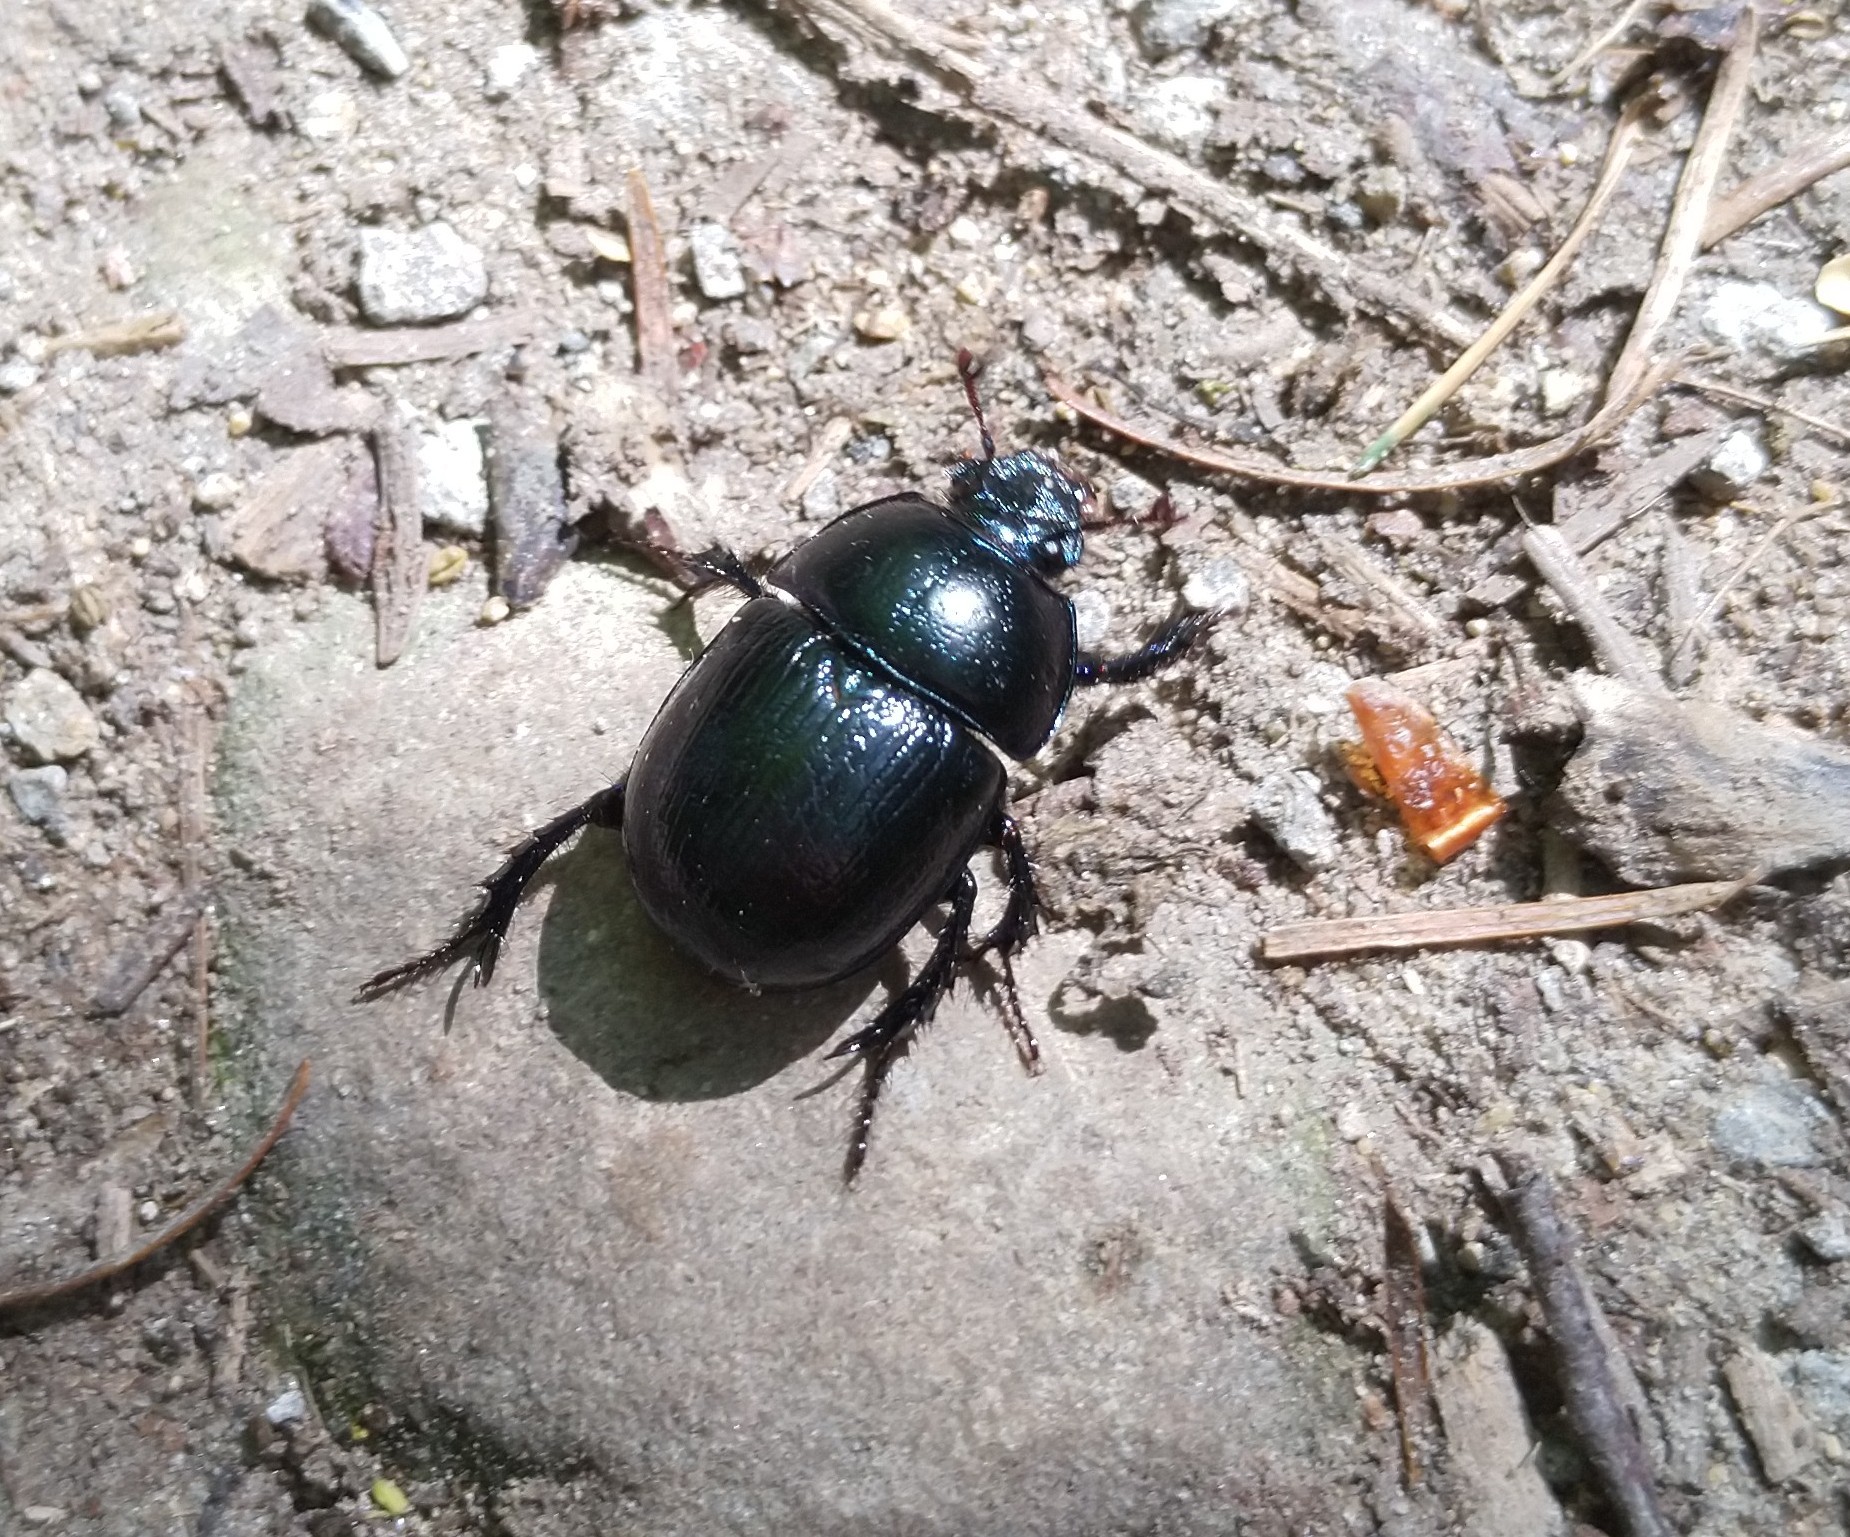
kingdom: Animalia
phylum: Arthropoda
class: Insecta
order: Coleoptera
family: Geotrupidae
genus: Anoplotrupes
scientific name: Anoplotrupes stercorosus
